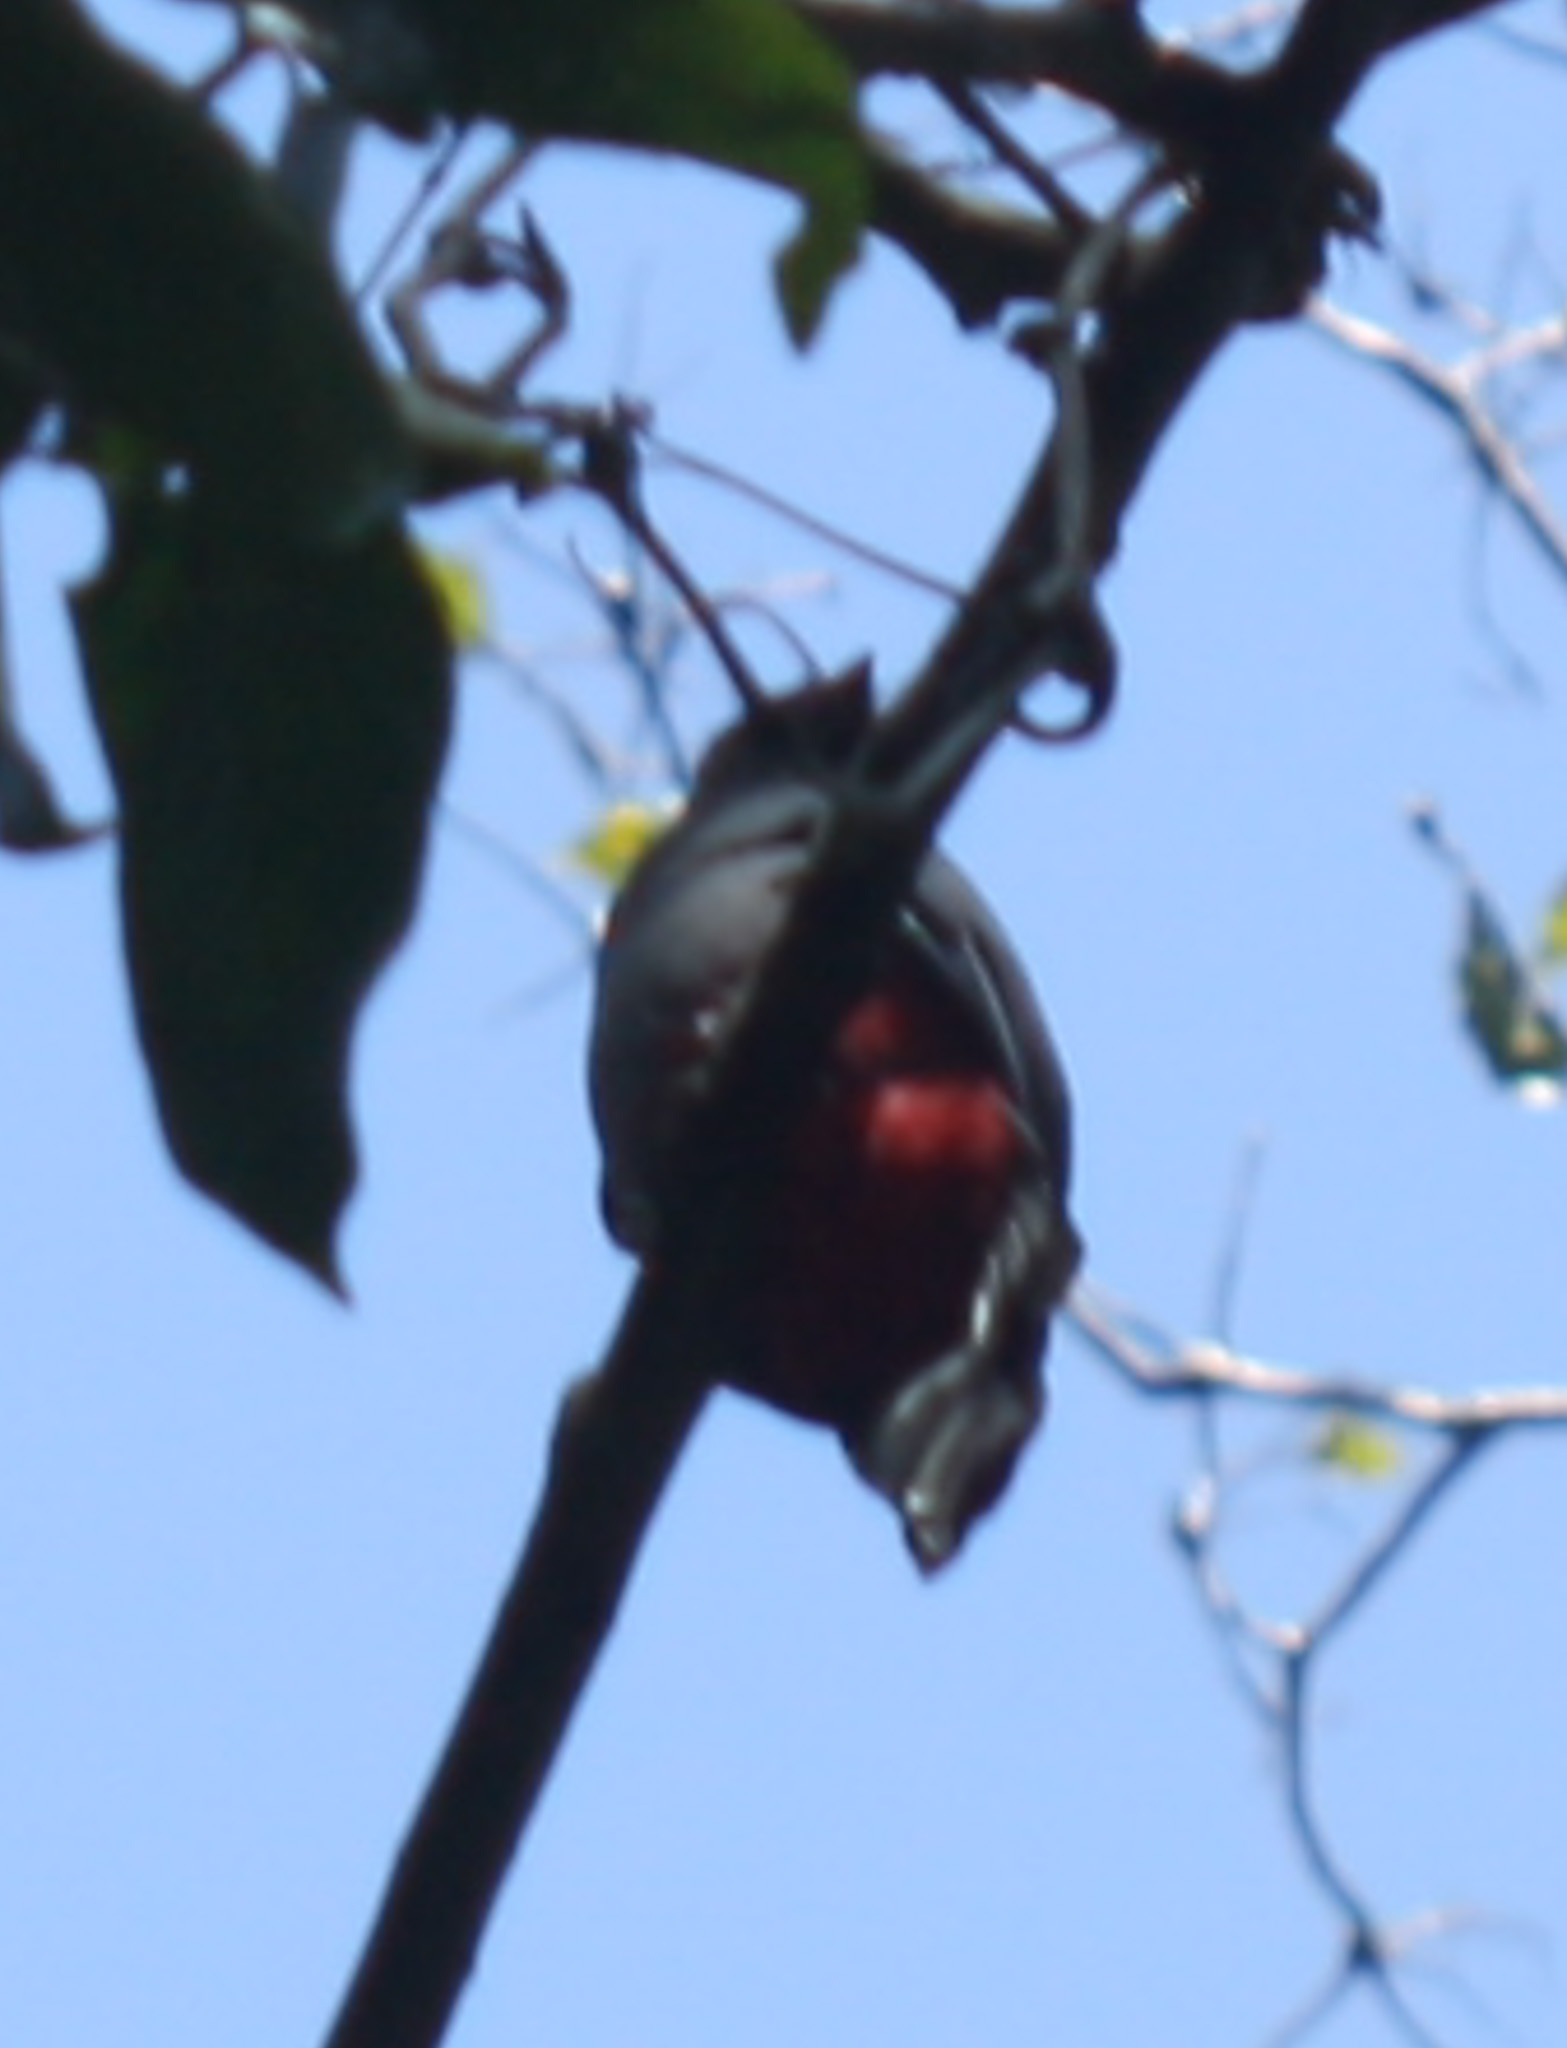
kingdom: Animalia
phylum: Chordata
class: Aves
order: Trogoniformes
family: Trogonidae
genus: Trogon
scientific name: Trogon massena
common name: Slaty-tailed trogon
